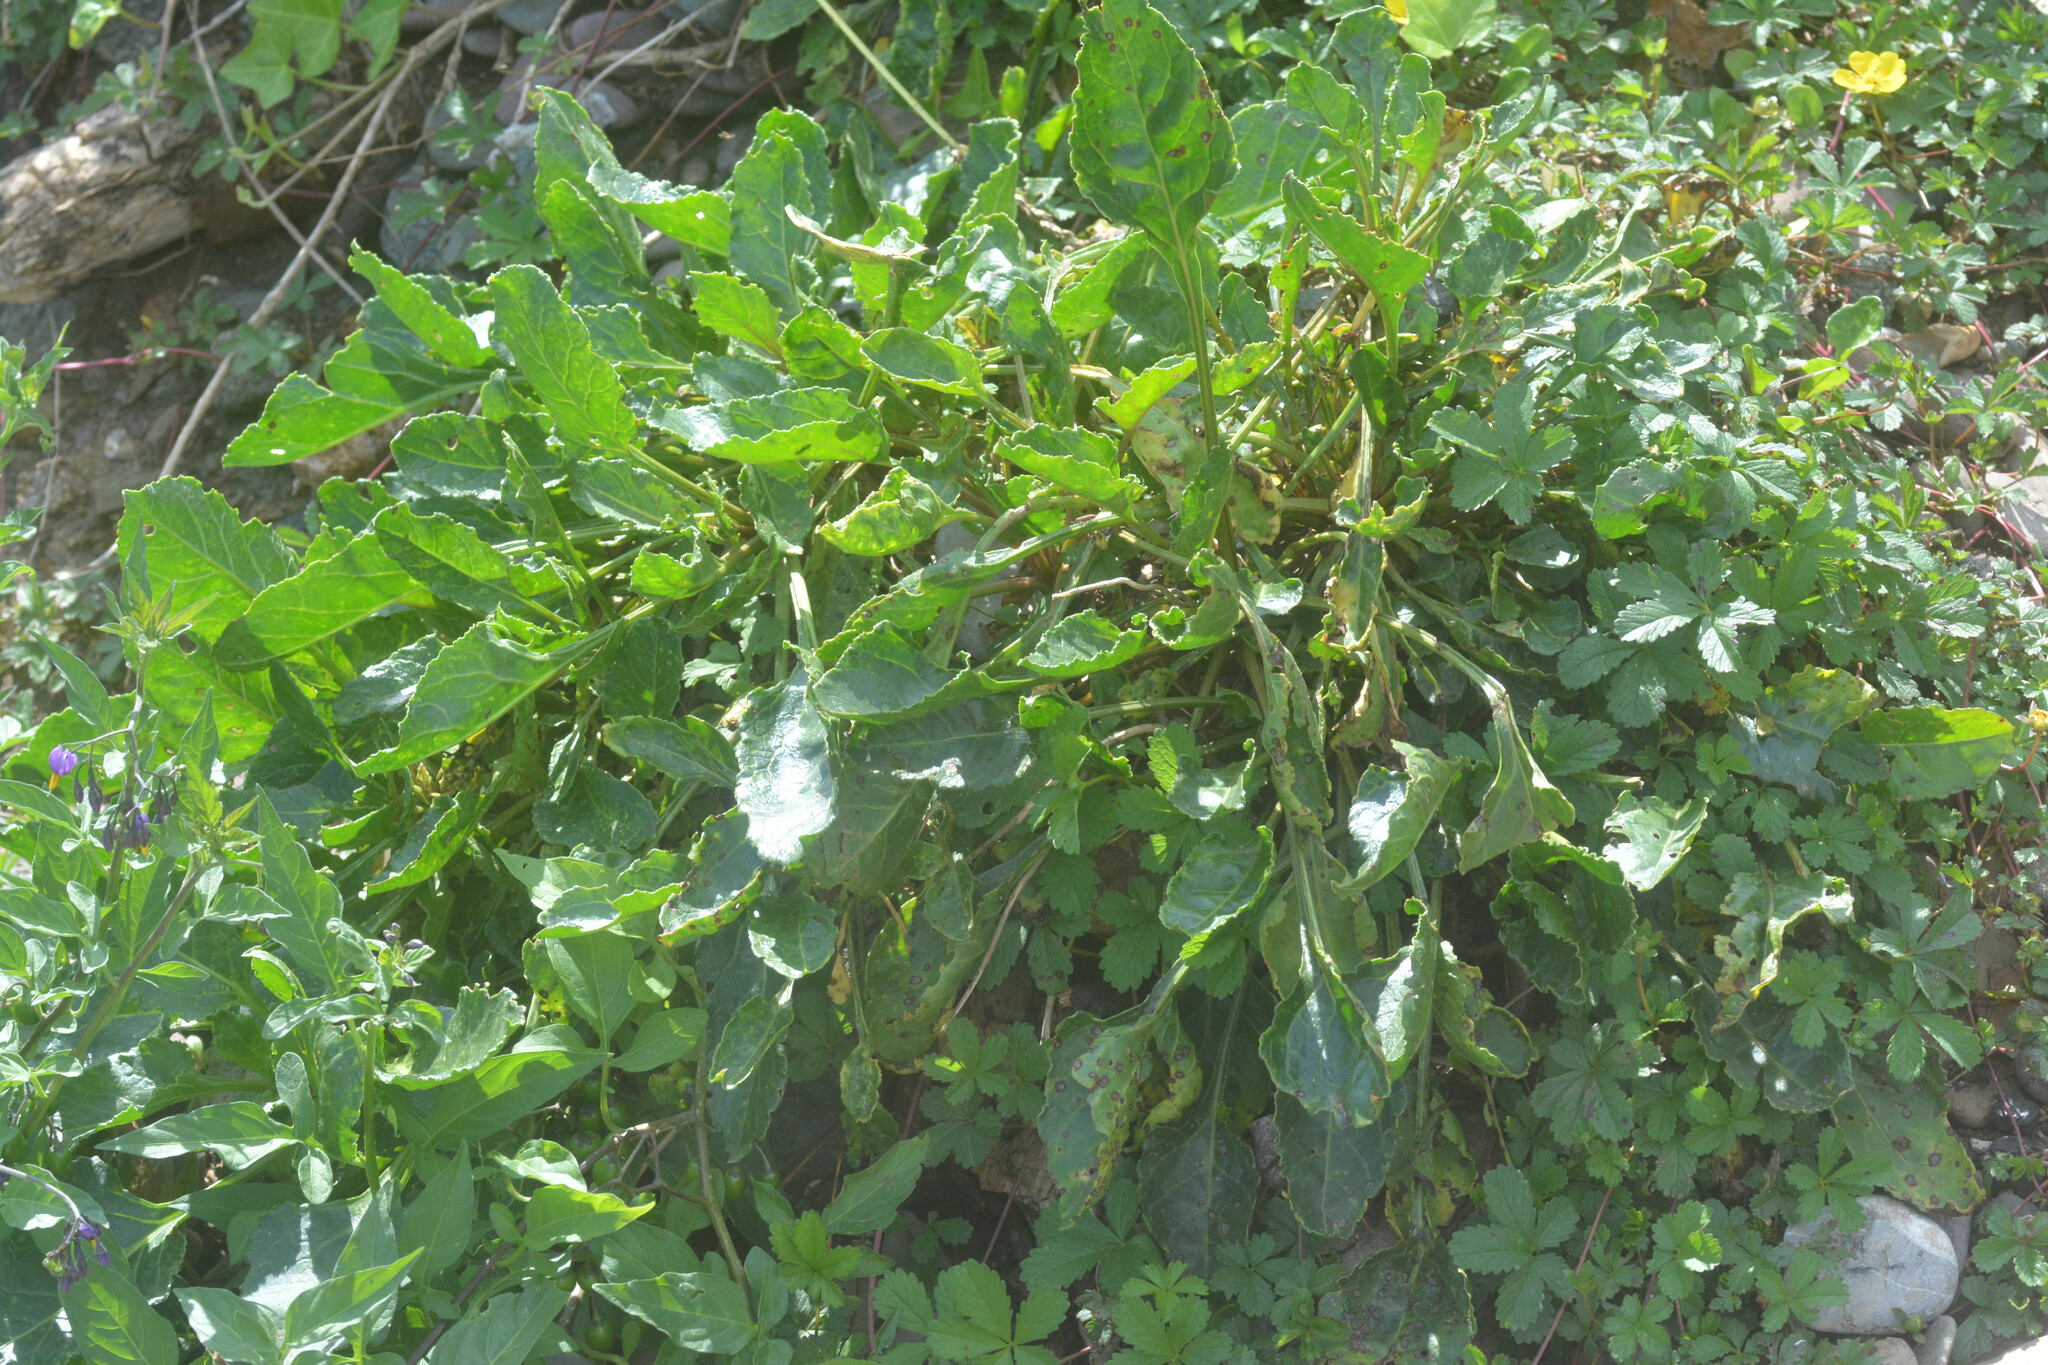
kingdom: Plantae
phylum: Tracheophyta
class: Magnoliopsida
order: Caryophyllales
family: Amaranthaceae
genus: Beta
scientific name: Beta vulgaris
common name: Beet
